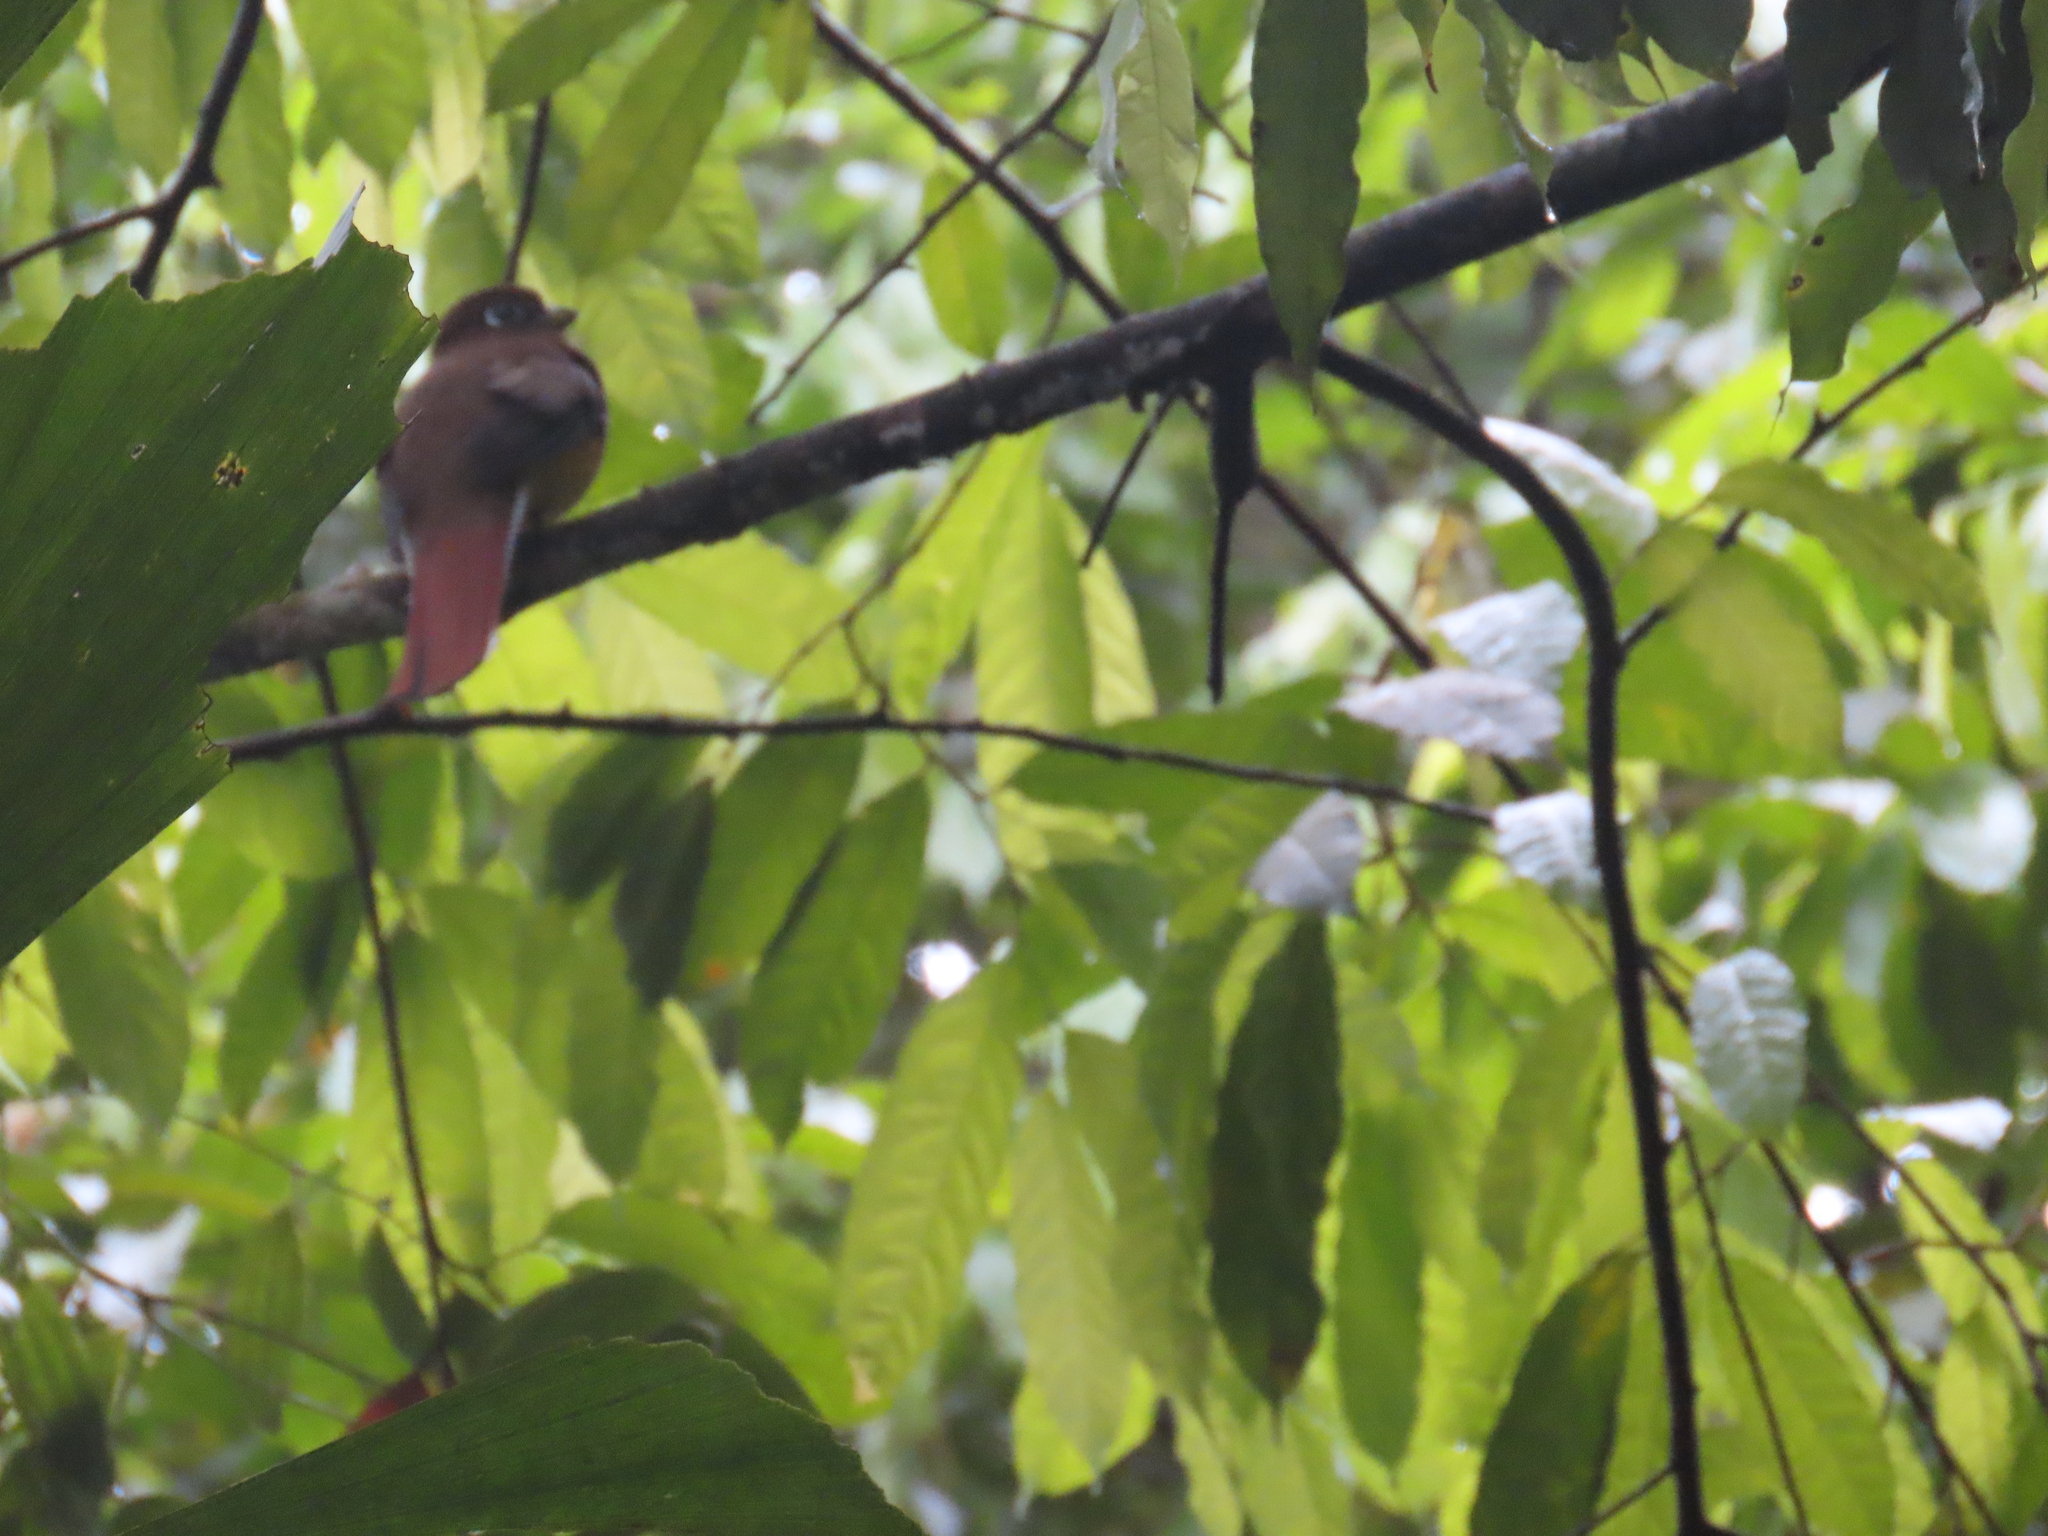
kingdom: Animalia
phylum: Chordata
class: Aves
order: Trogoniformes
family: Trogonidae
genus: Trogon
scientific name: Trogon rufus
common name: Black-throated trogon
